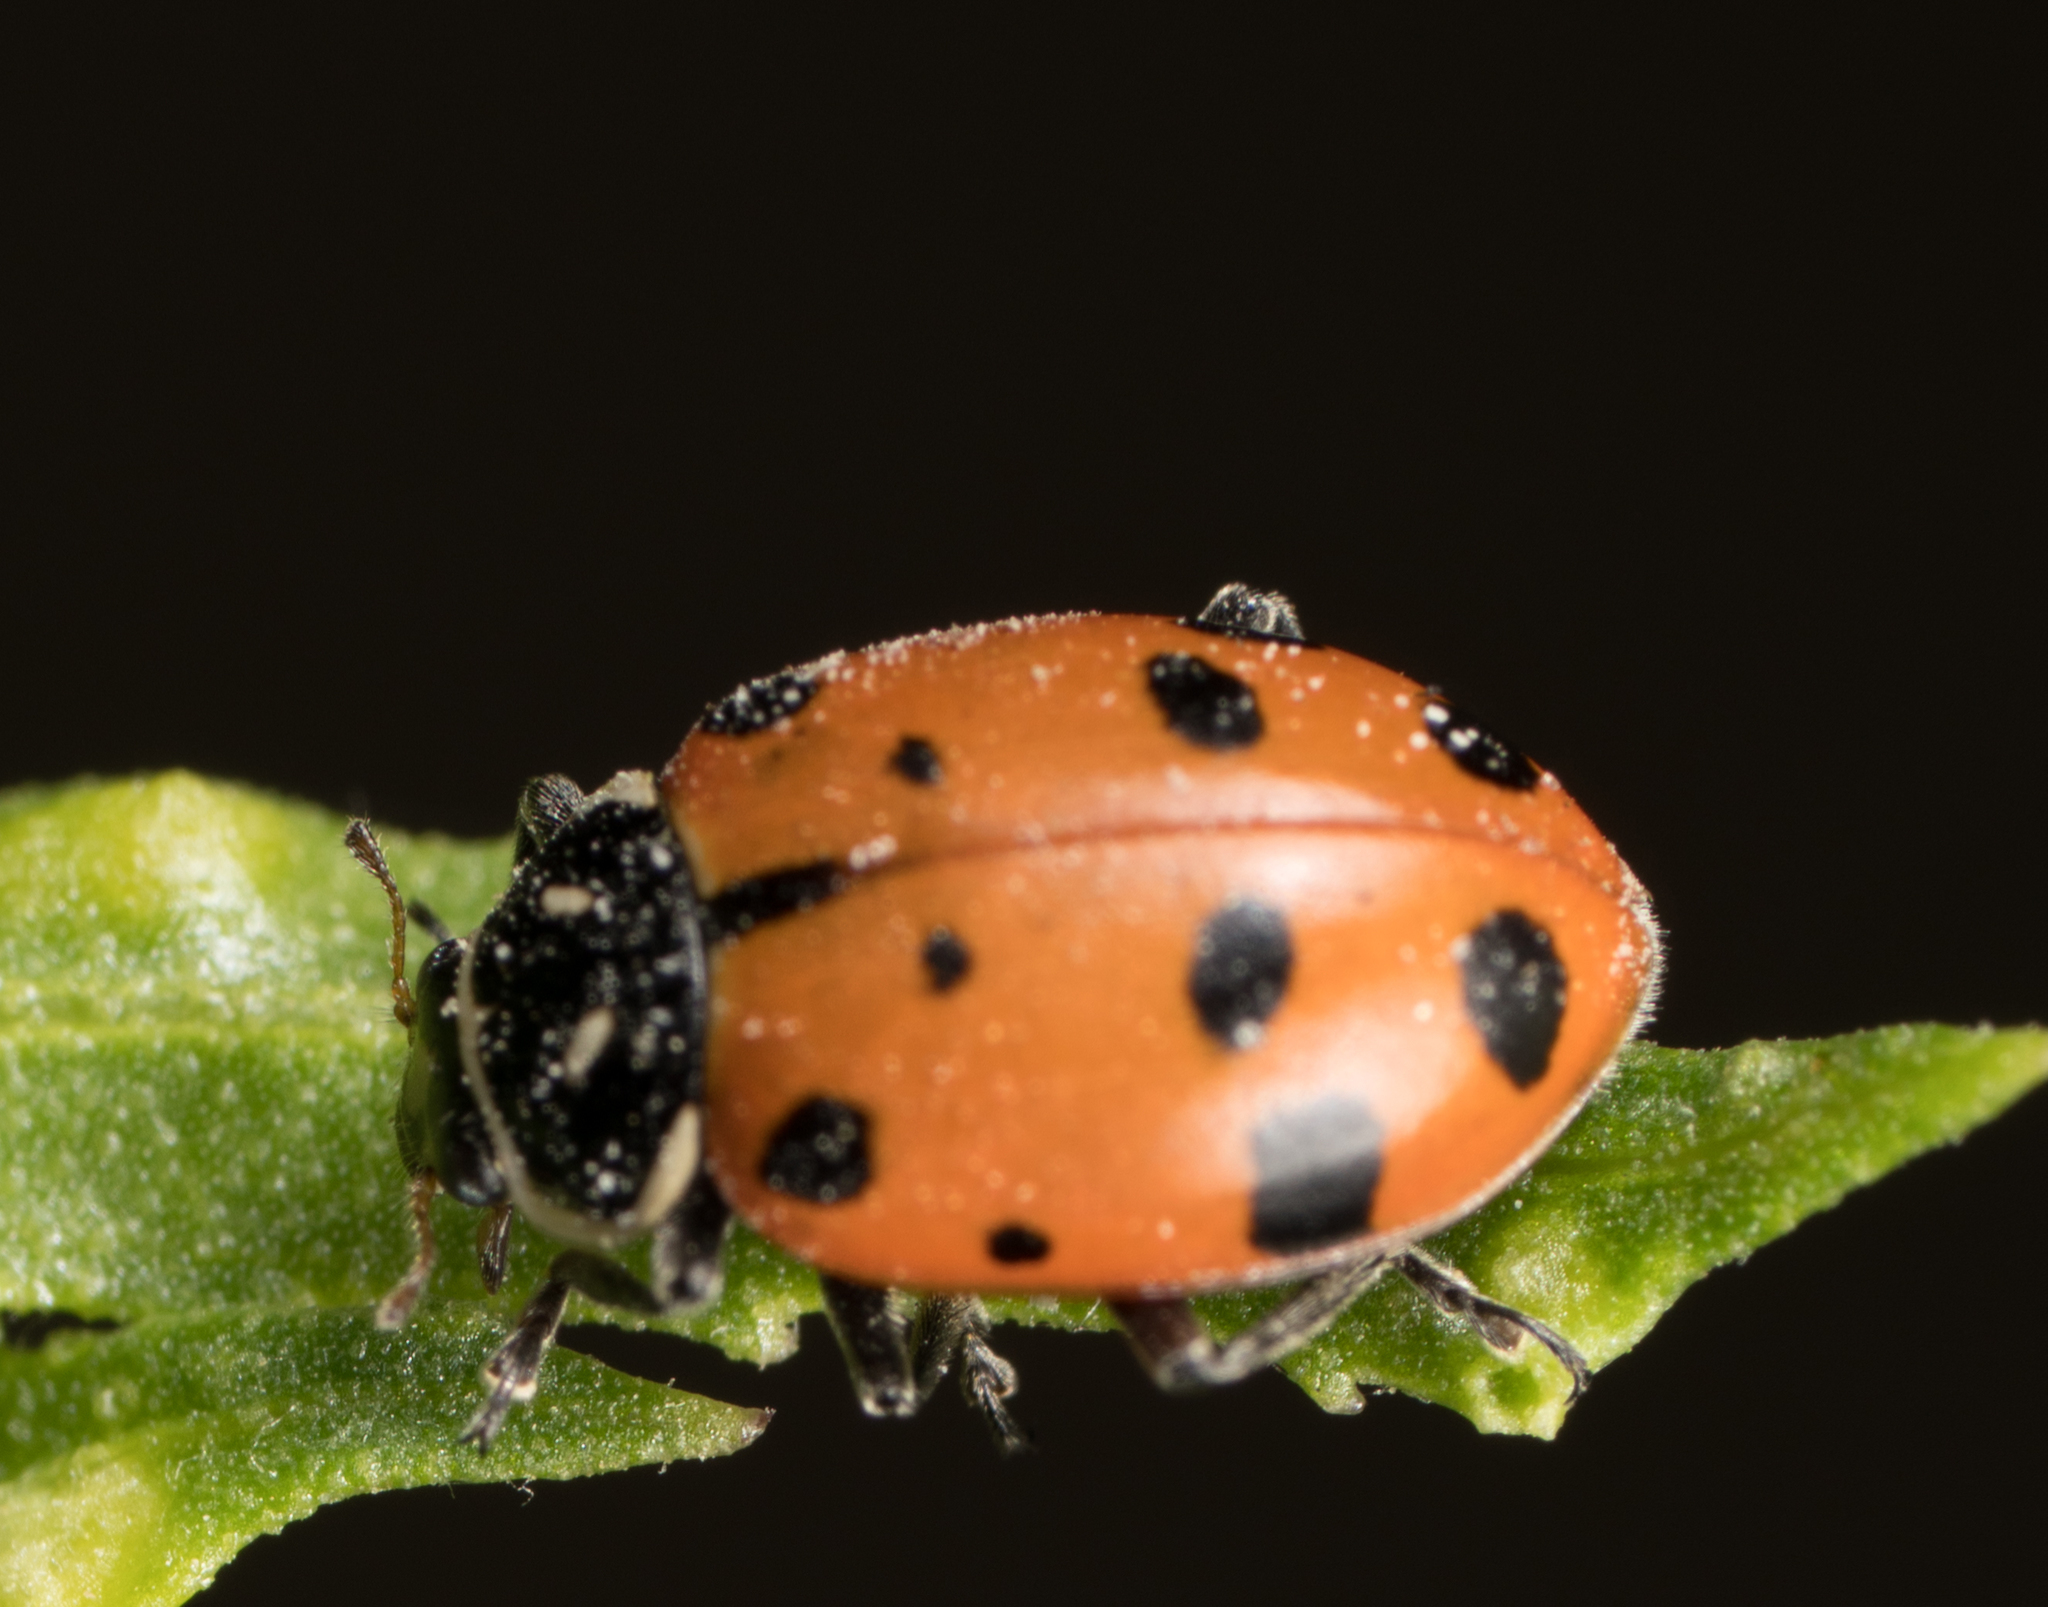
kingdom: Animalia
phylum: Arthropoda
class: Insecta
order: Coleoptera
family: Coccinellidae
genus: Hippodamia
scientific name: Hippodamia convergens
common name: Convergent lady beetle
